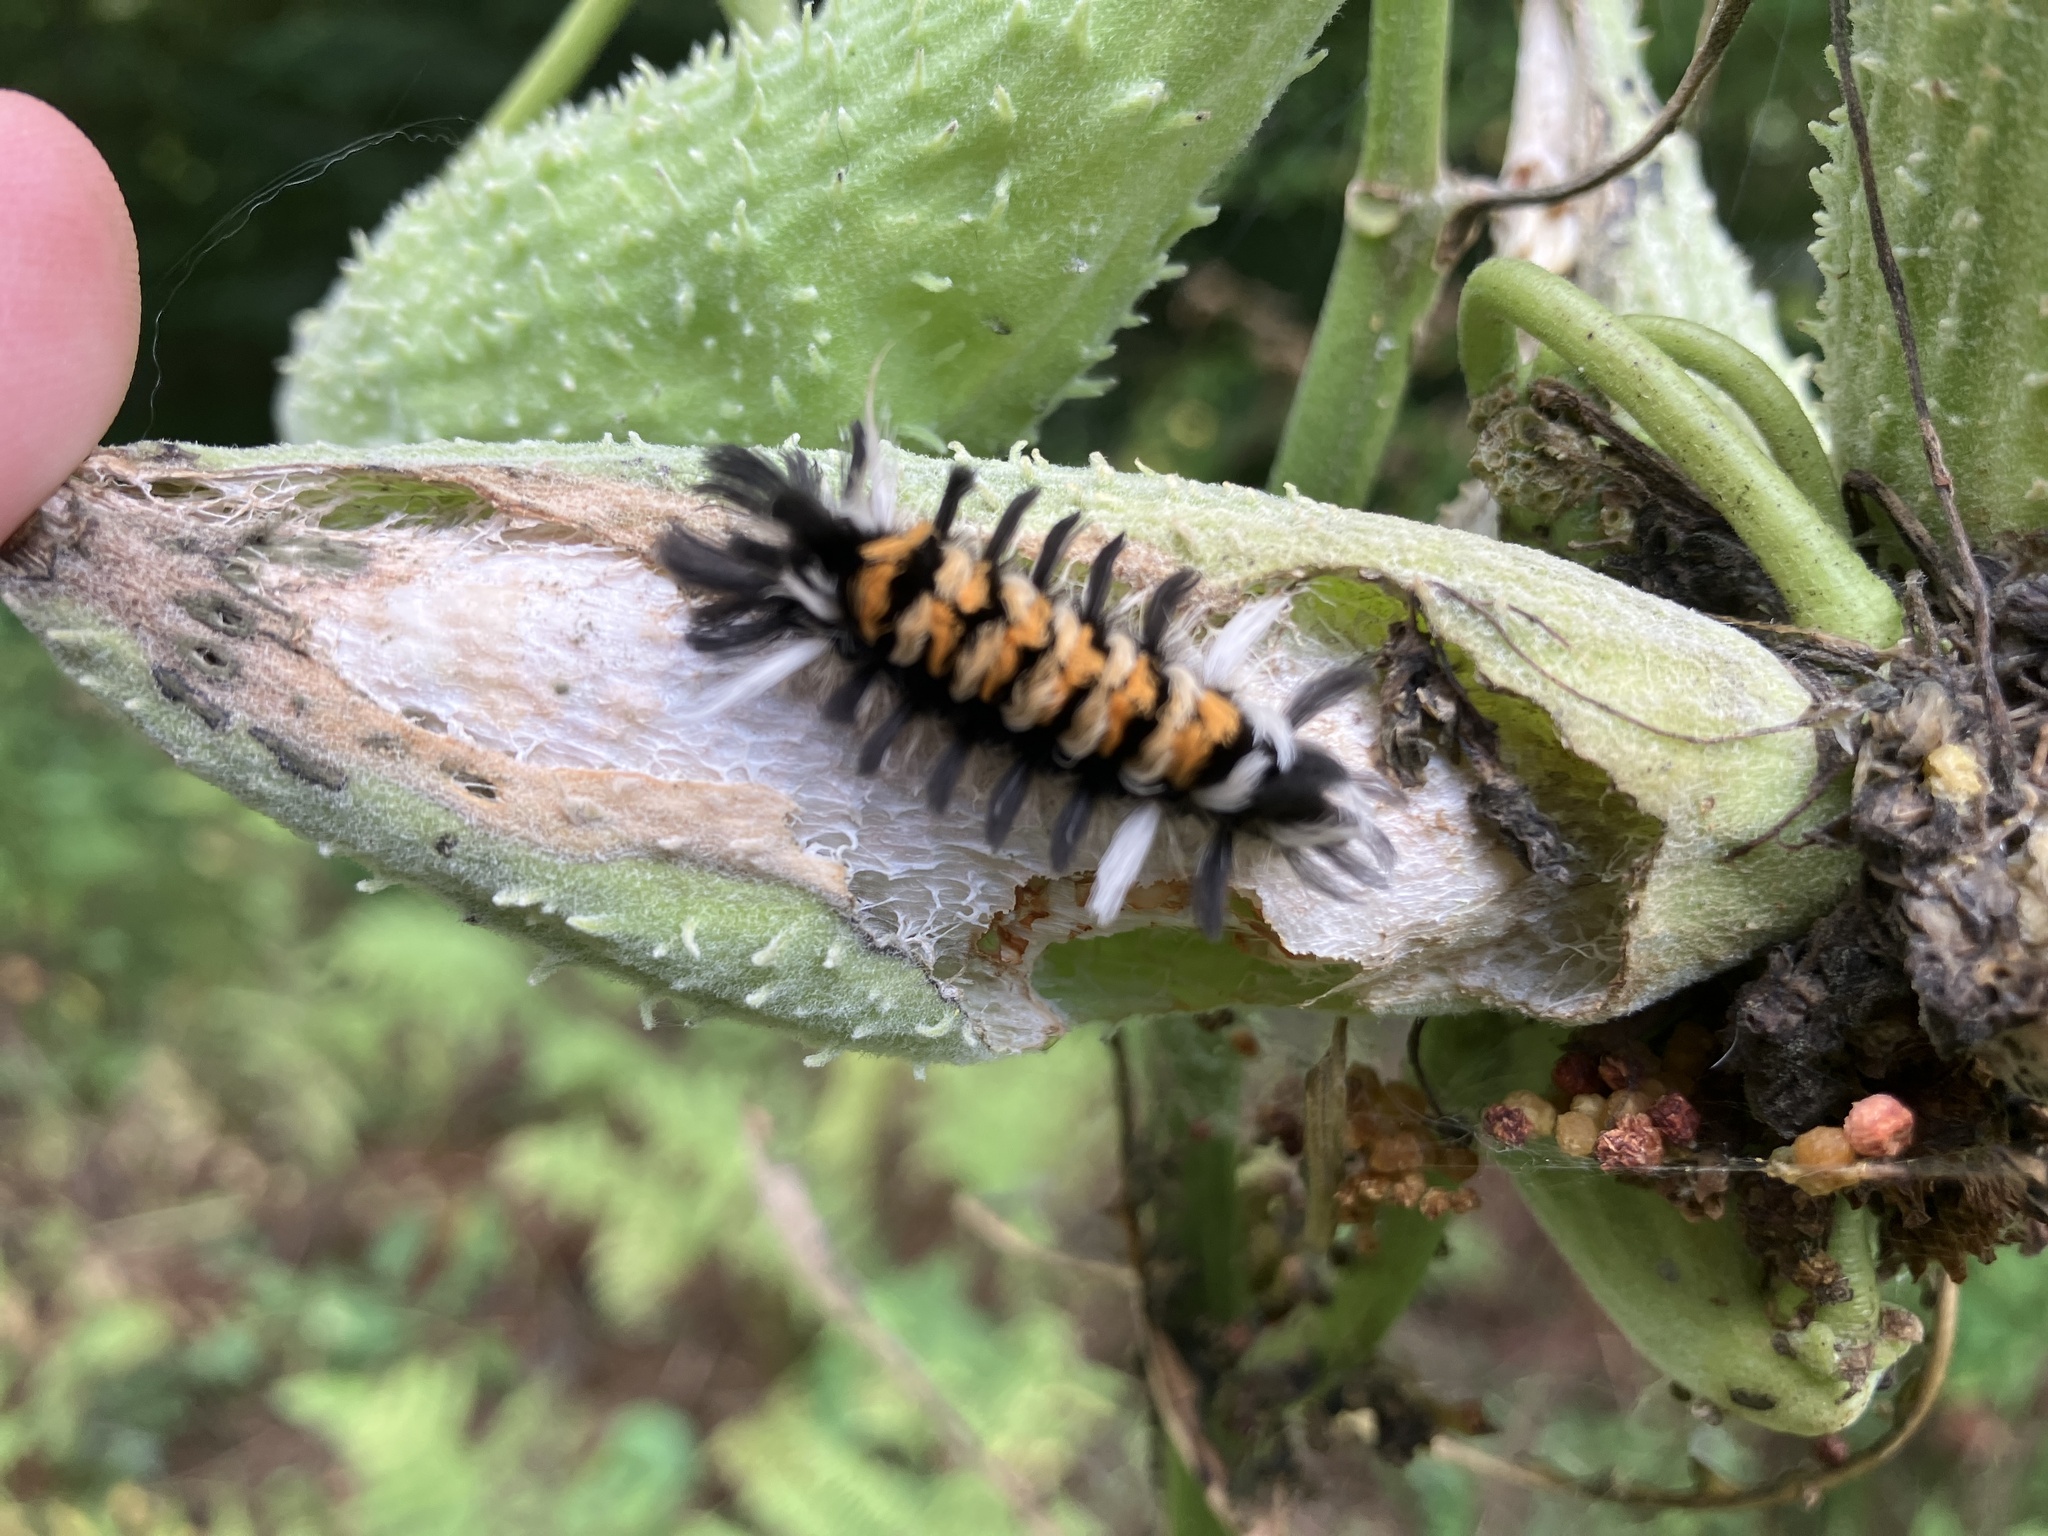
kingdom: Animalia
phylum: Arthropoda
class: Insecta
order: Lepidoptera
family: Erebidae
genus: Euchaetes
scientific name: Euchaetes egle
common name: Milkweed tussock moth
